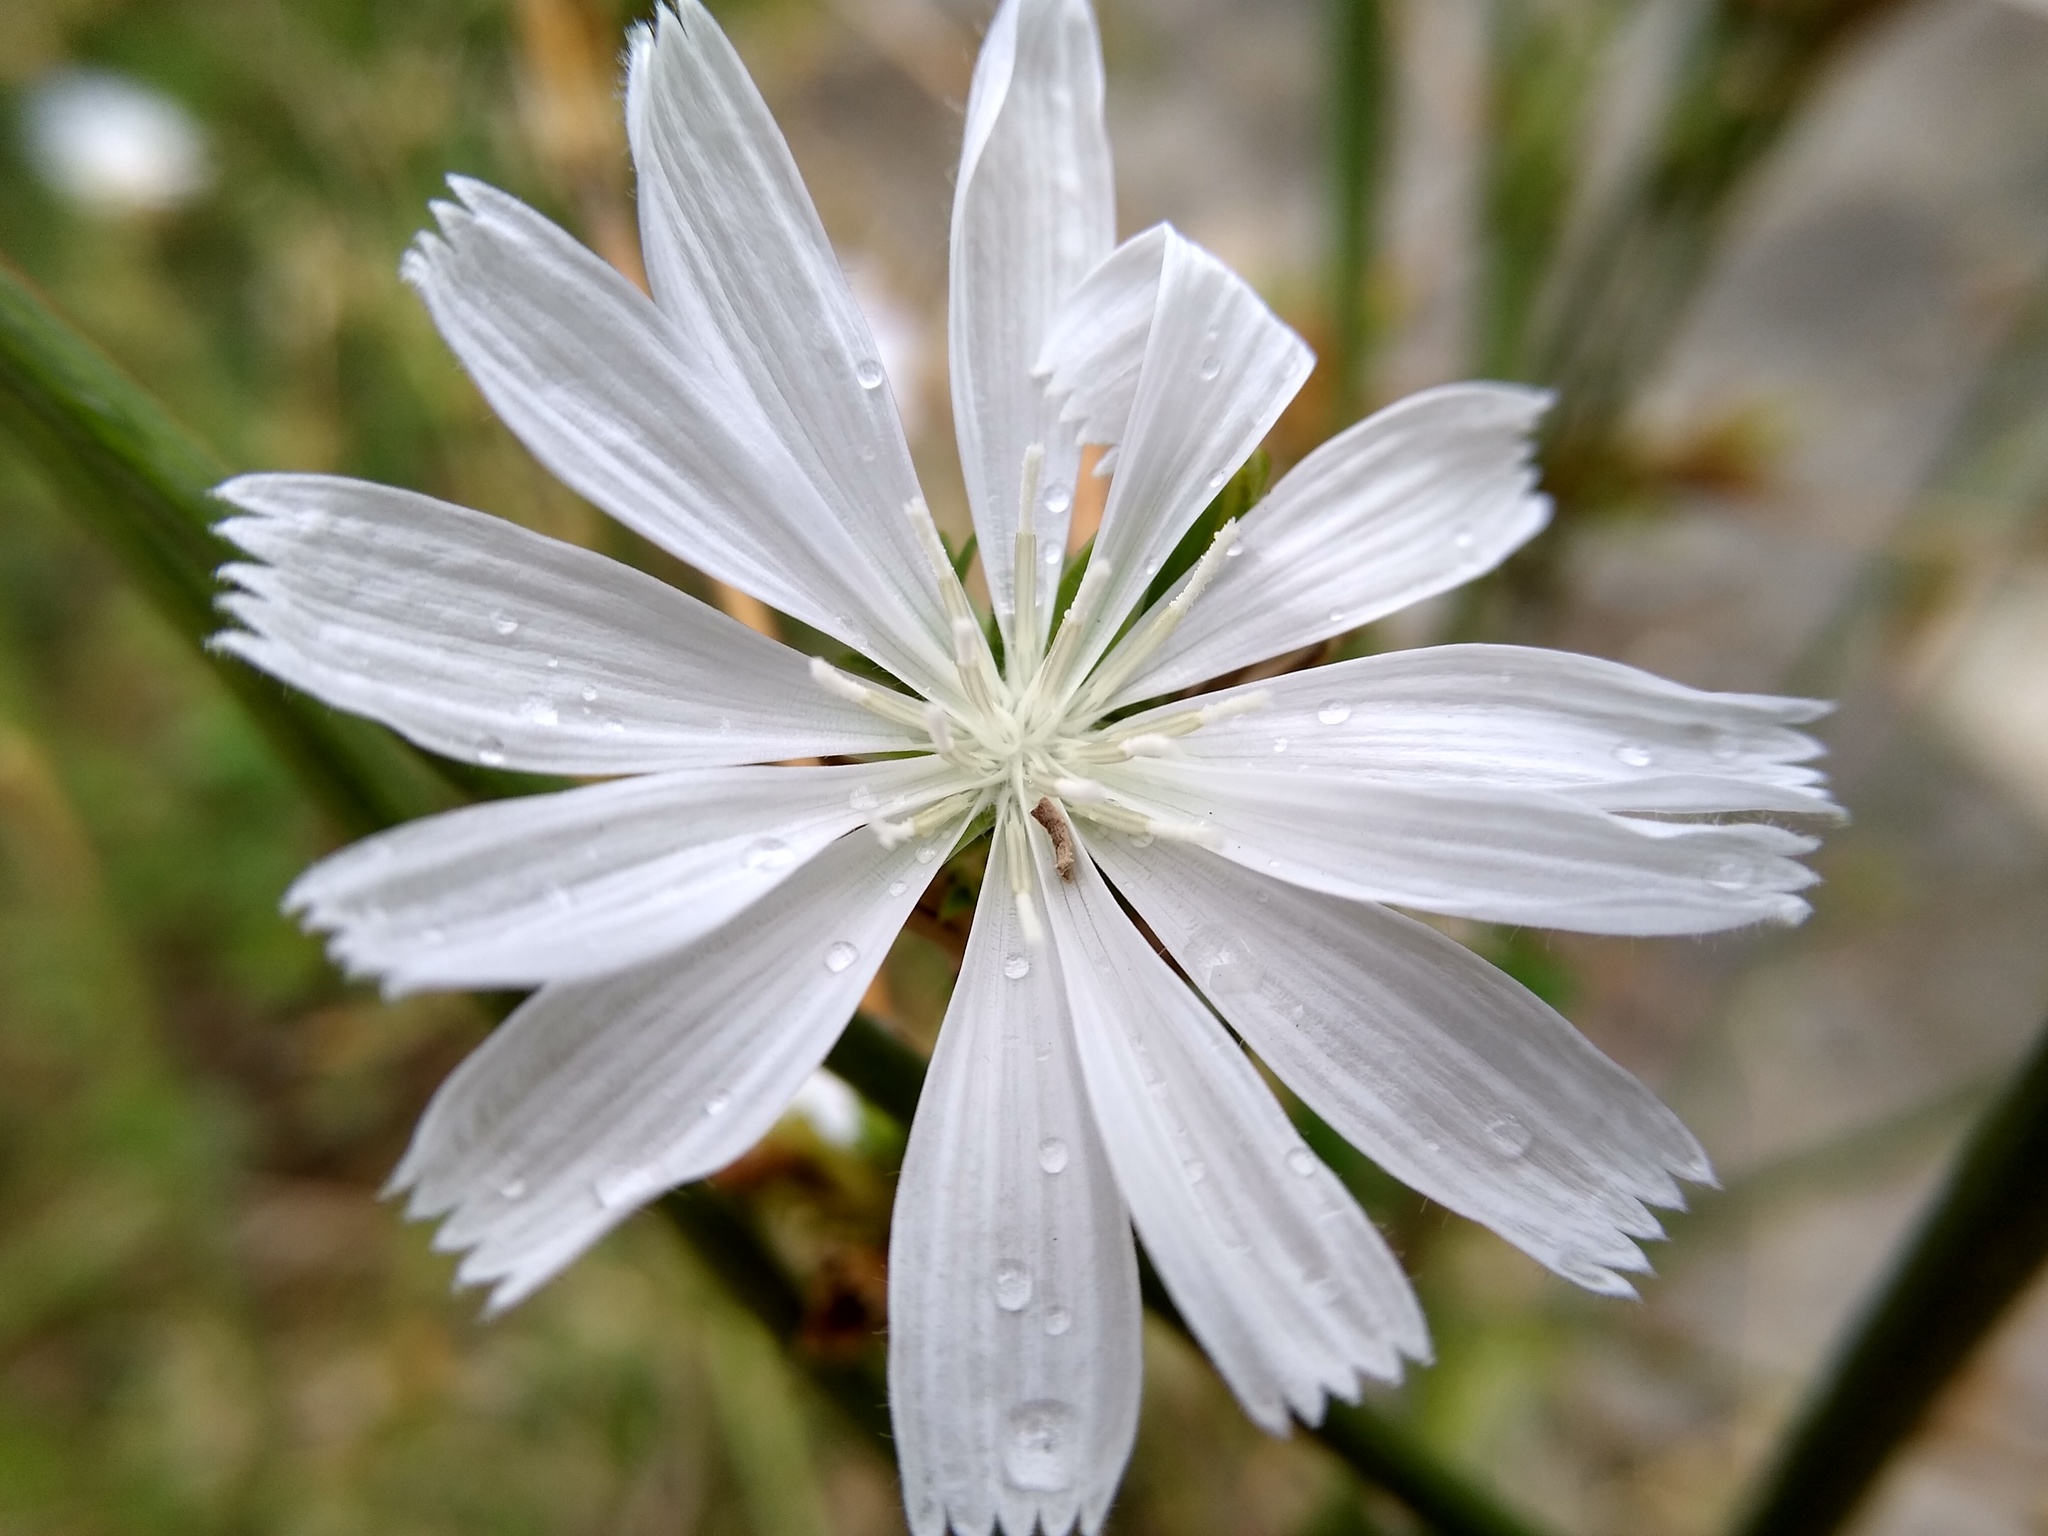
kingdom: Plantae
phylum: Tracheophyta
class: Magnoliopsida
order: Asterales
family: Asteraceae
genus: Cichorium
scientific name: Cichorium intybus
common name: Chicory
